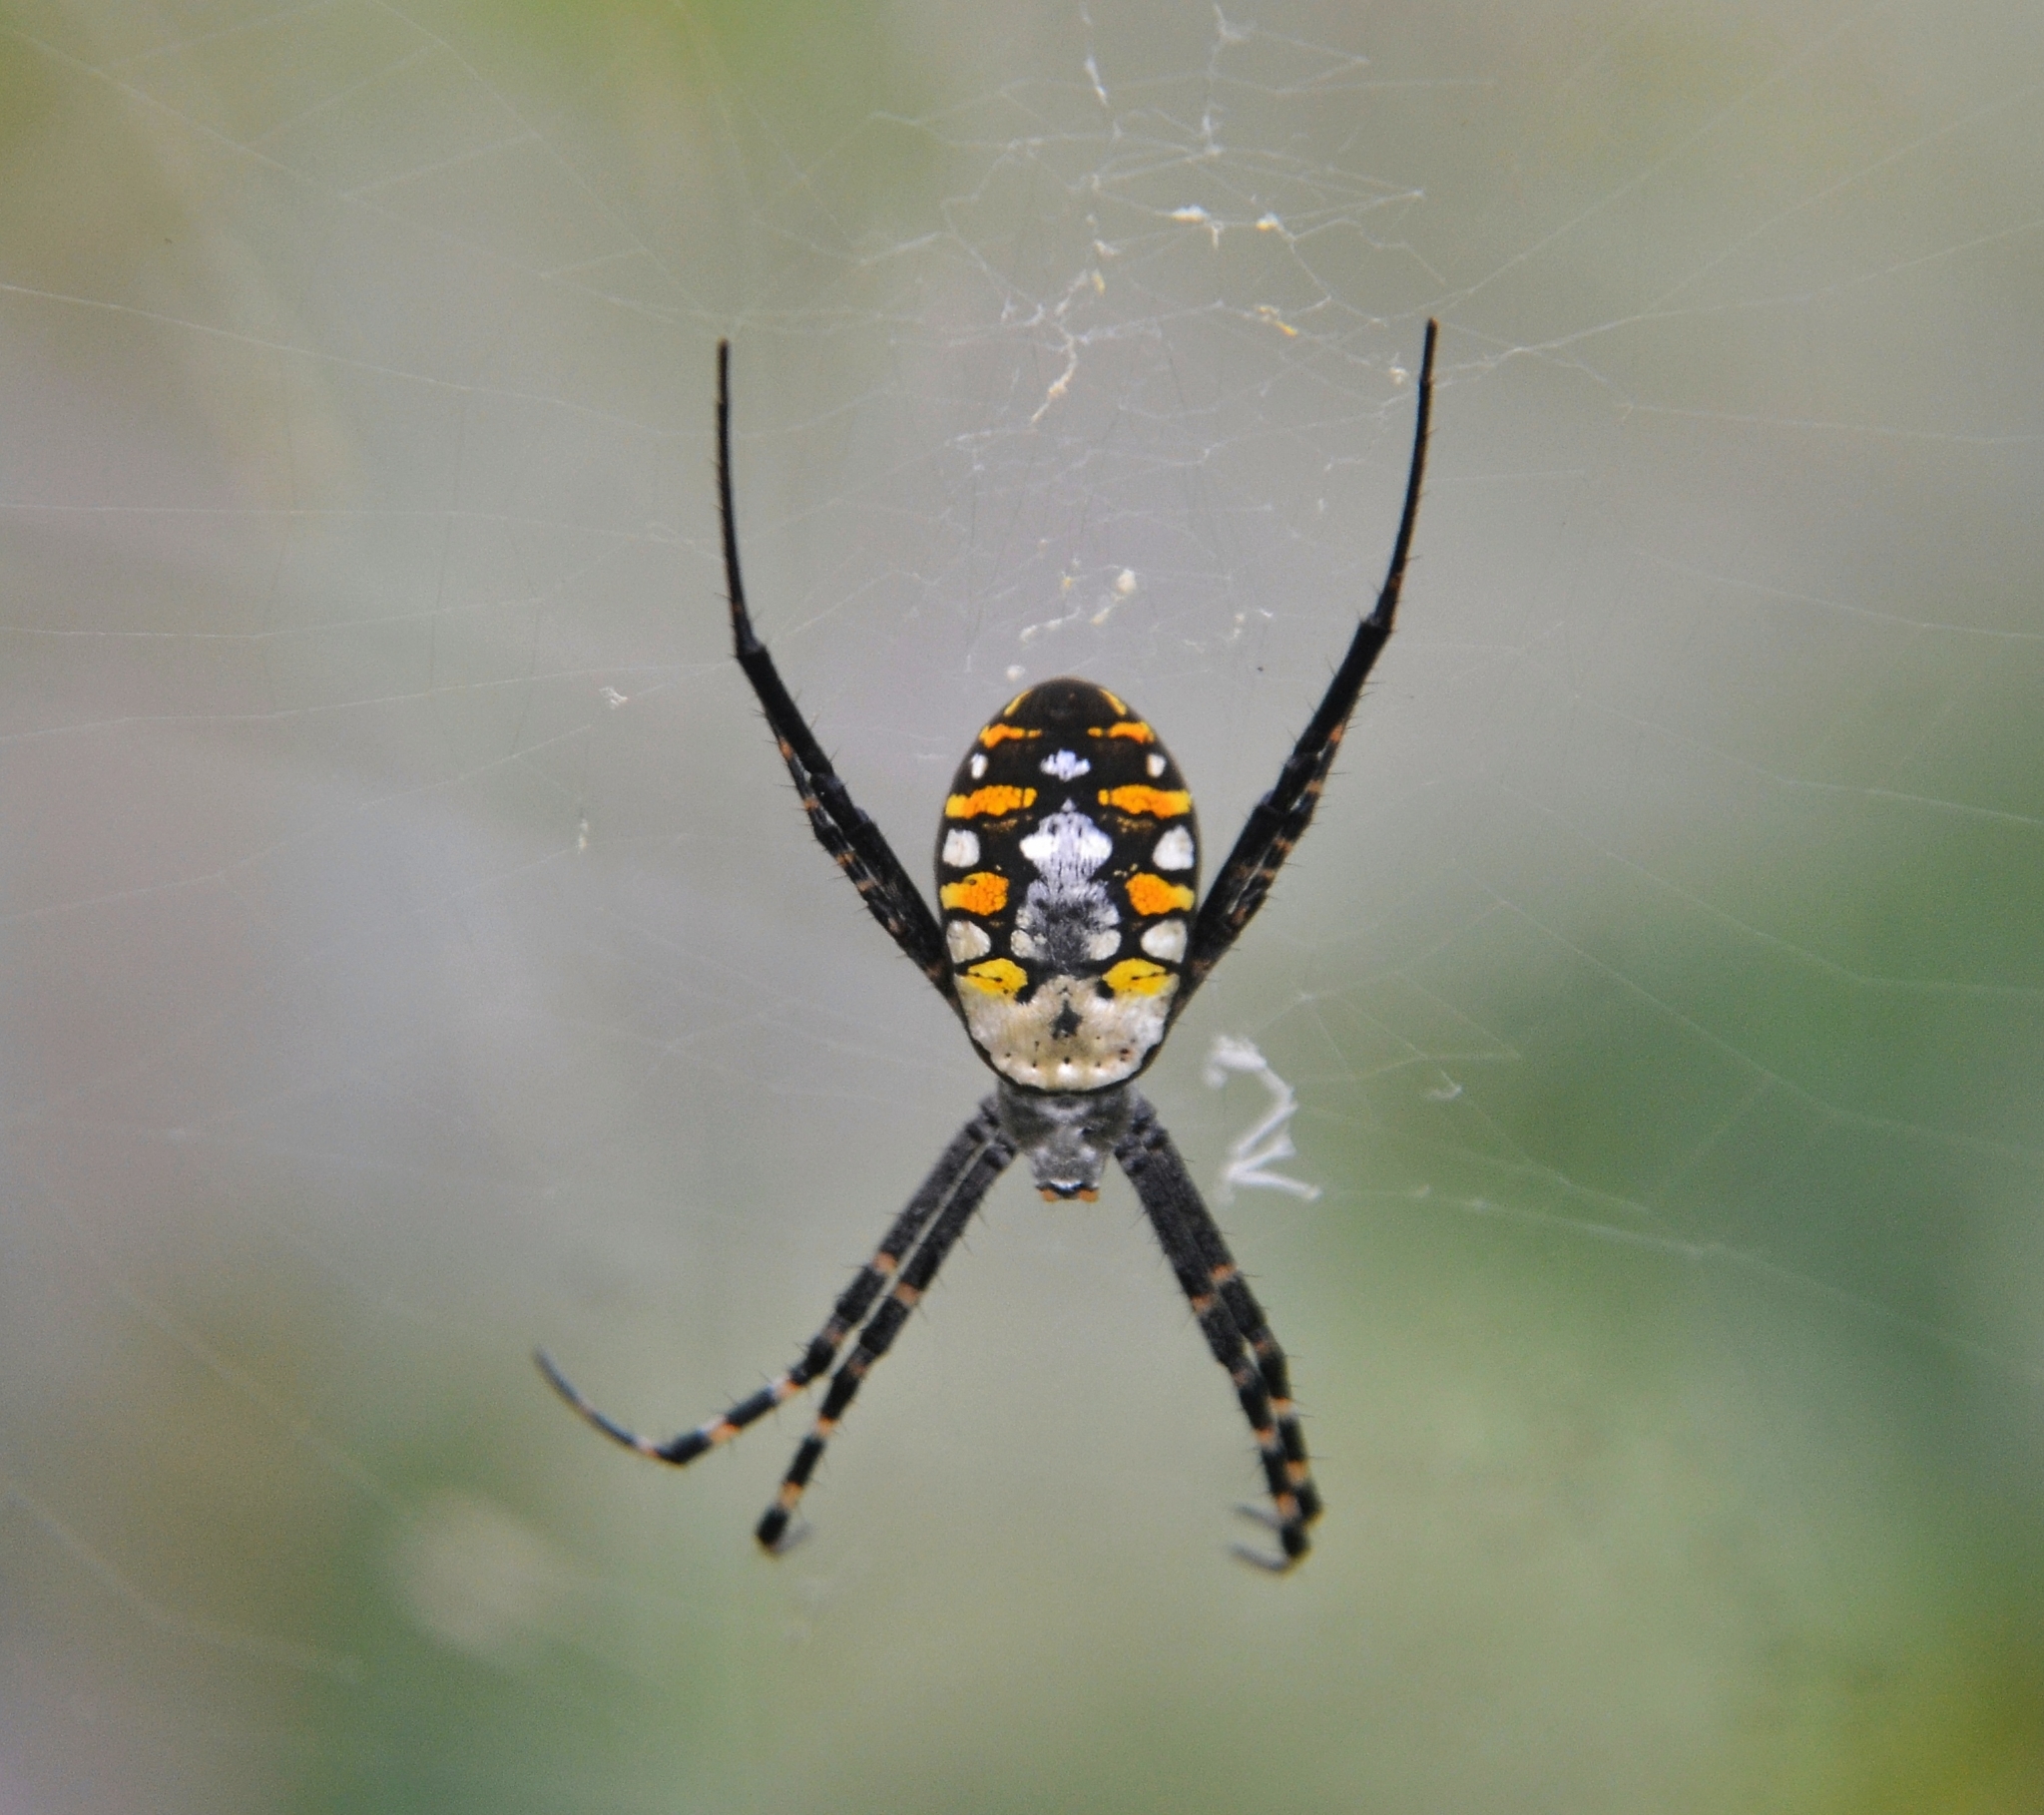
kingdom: Animalia
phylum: Arthropoda
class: Arachnida
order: Araneae
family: Araneidae
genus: Argiope
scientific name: Argiope catenulata
